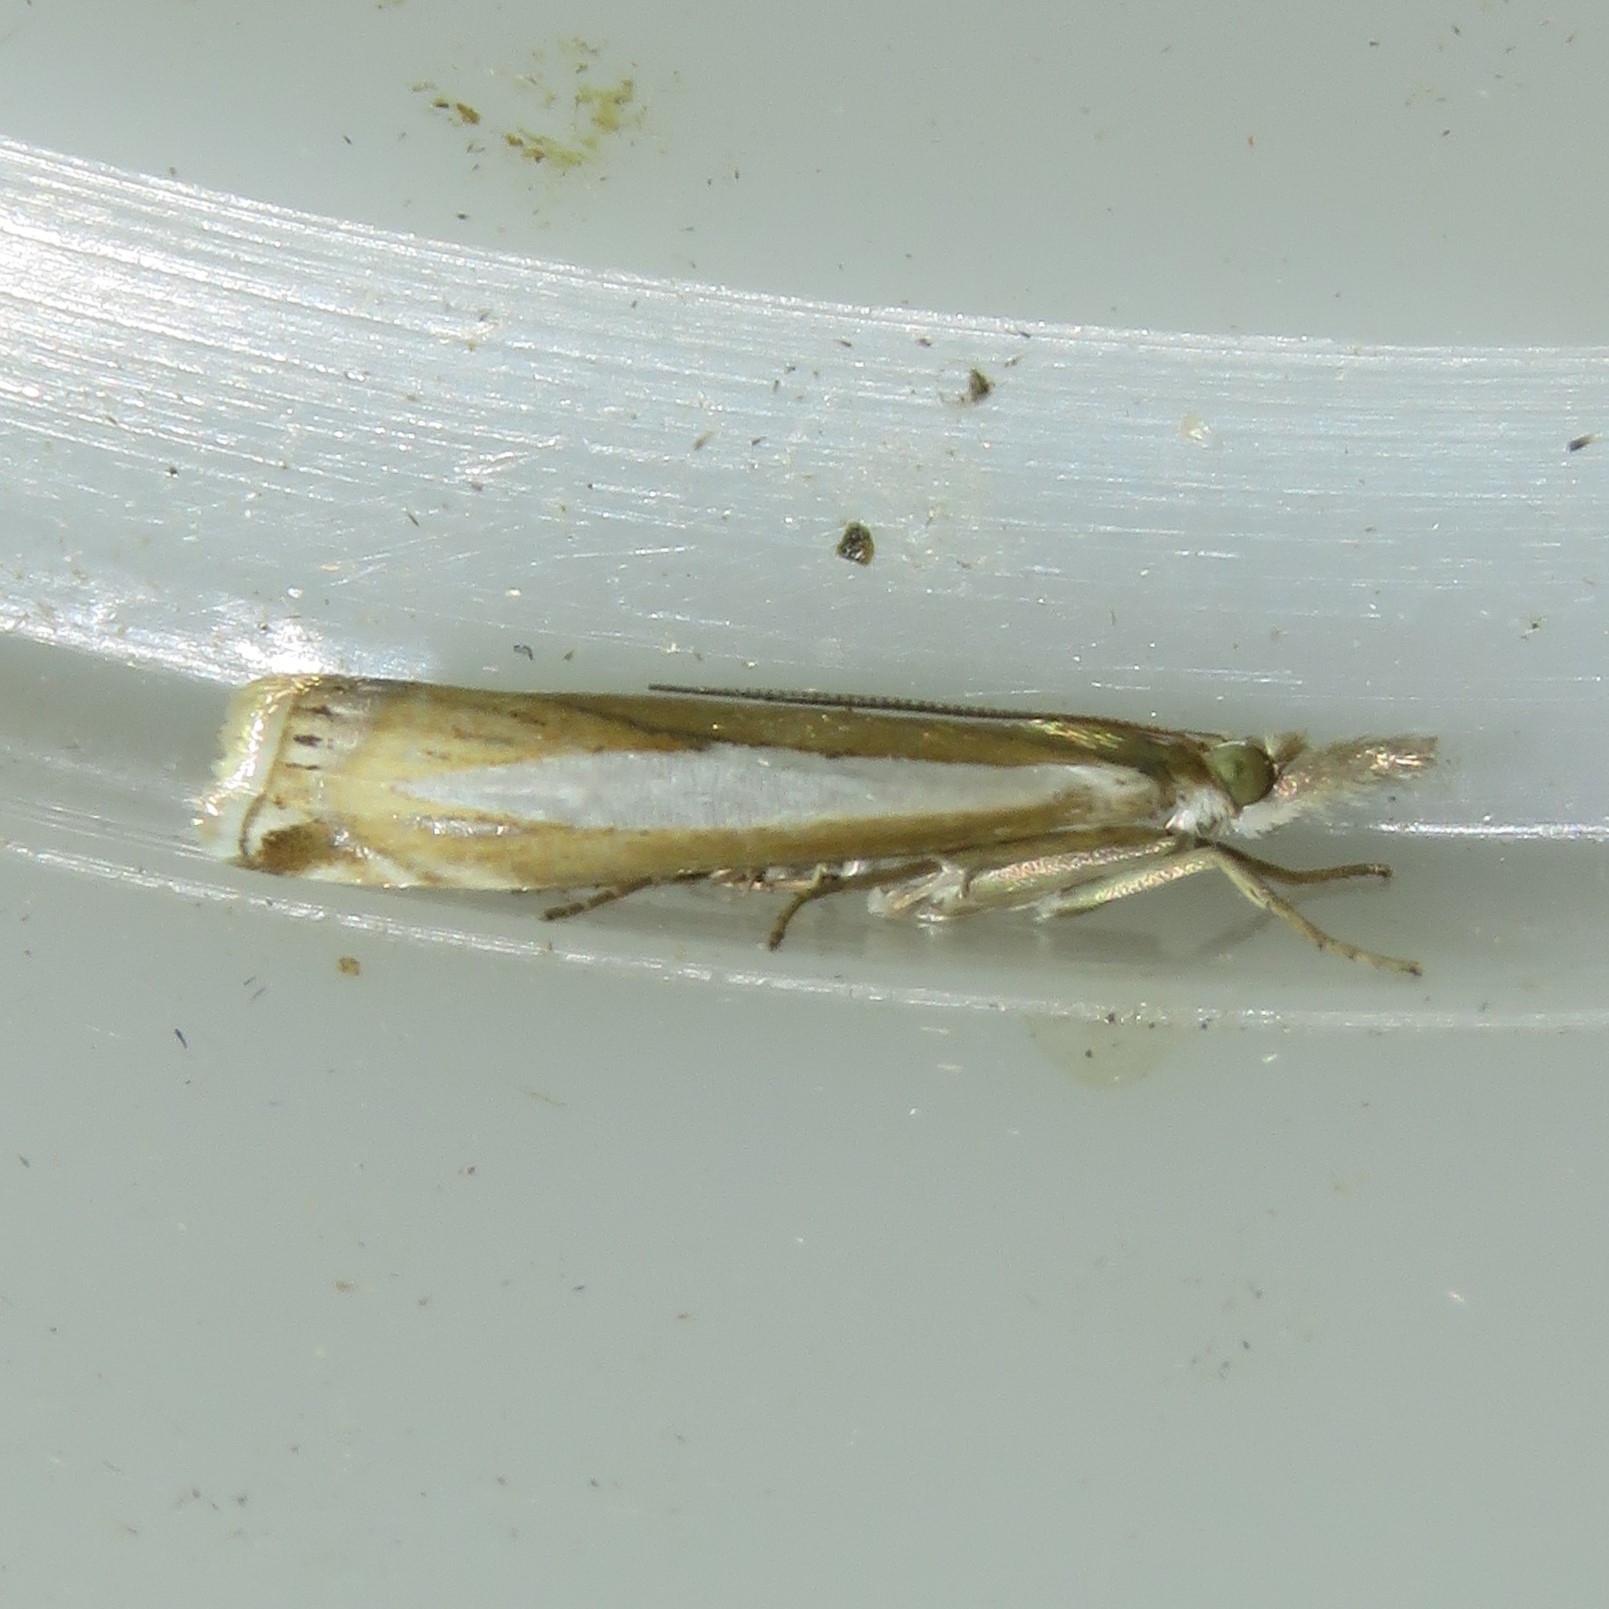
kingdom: Animalia
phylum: Arthropoda
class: Insecta
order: Lepidoptera
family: Crambidae
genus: Crambus
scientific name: Crambus praefectellus
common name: Common grass-veneer
